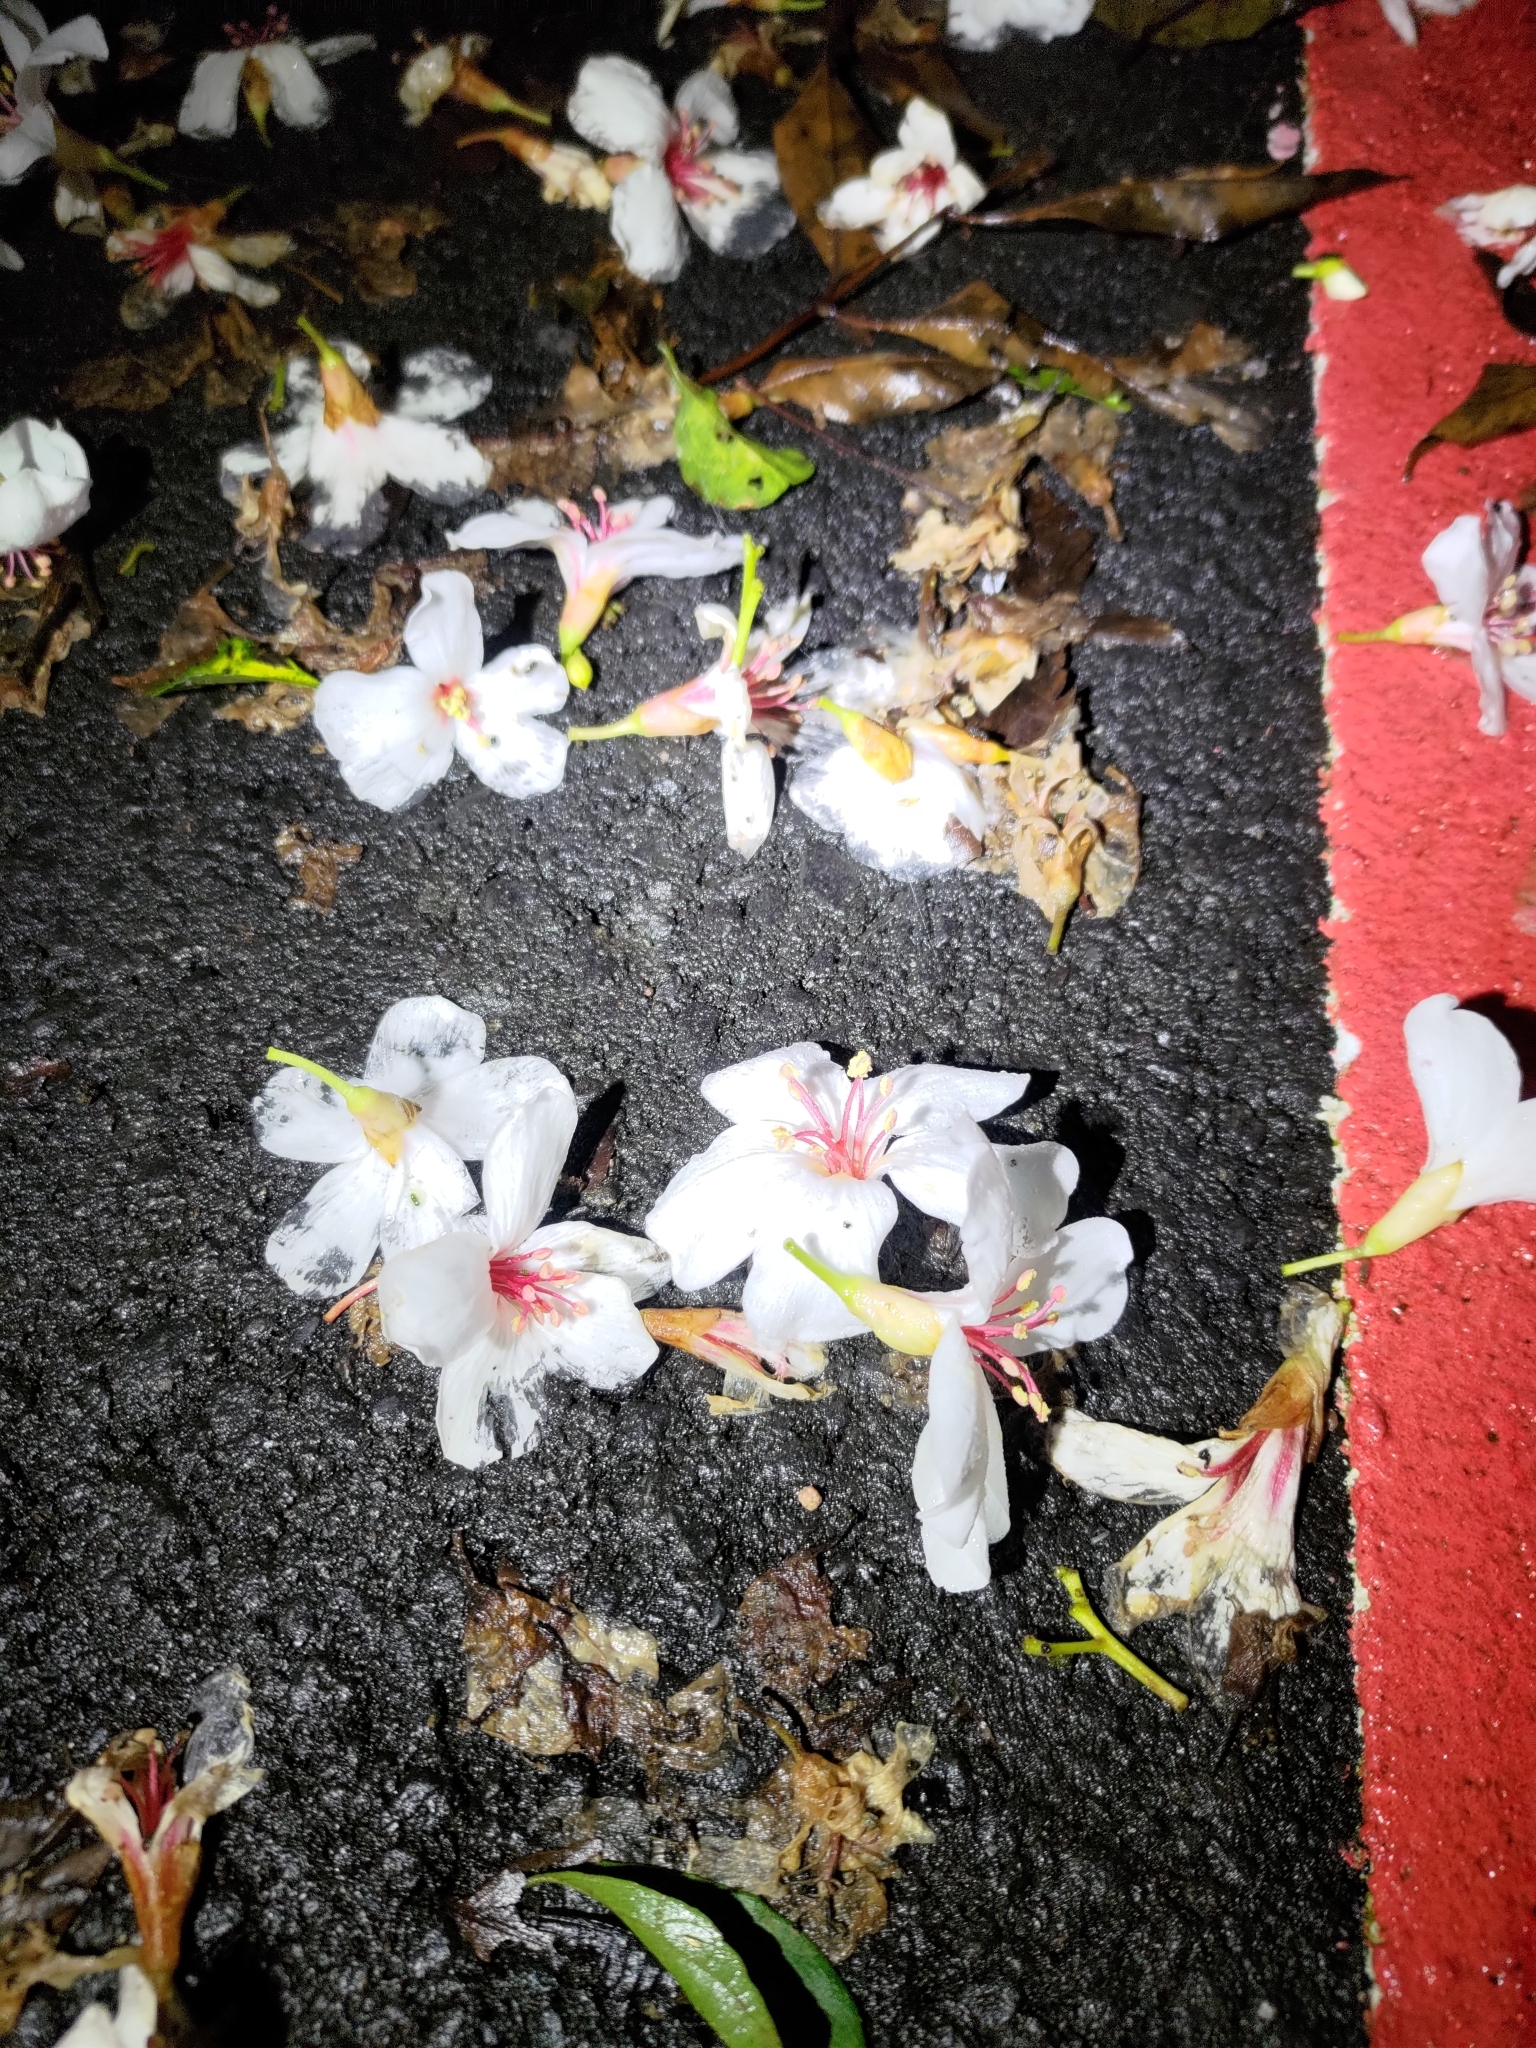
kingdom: Plantae
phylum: Tracheophyta
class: Magnoliopsida
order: Malpighiales
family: Euphorbiaceae
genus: Vernicia
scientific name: Vernicia montana
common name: Mu oil tree
